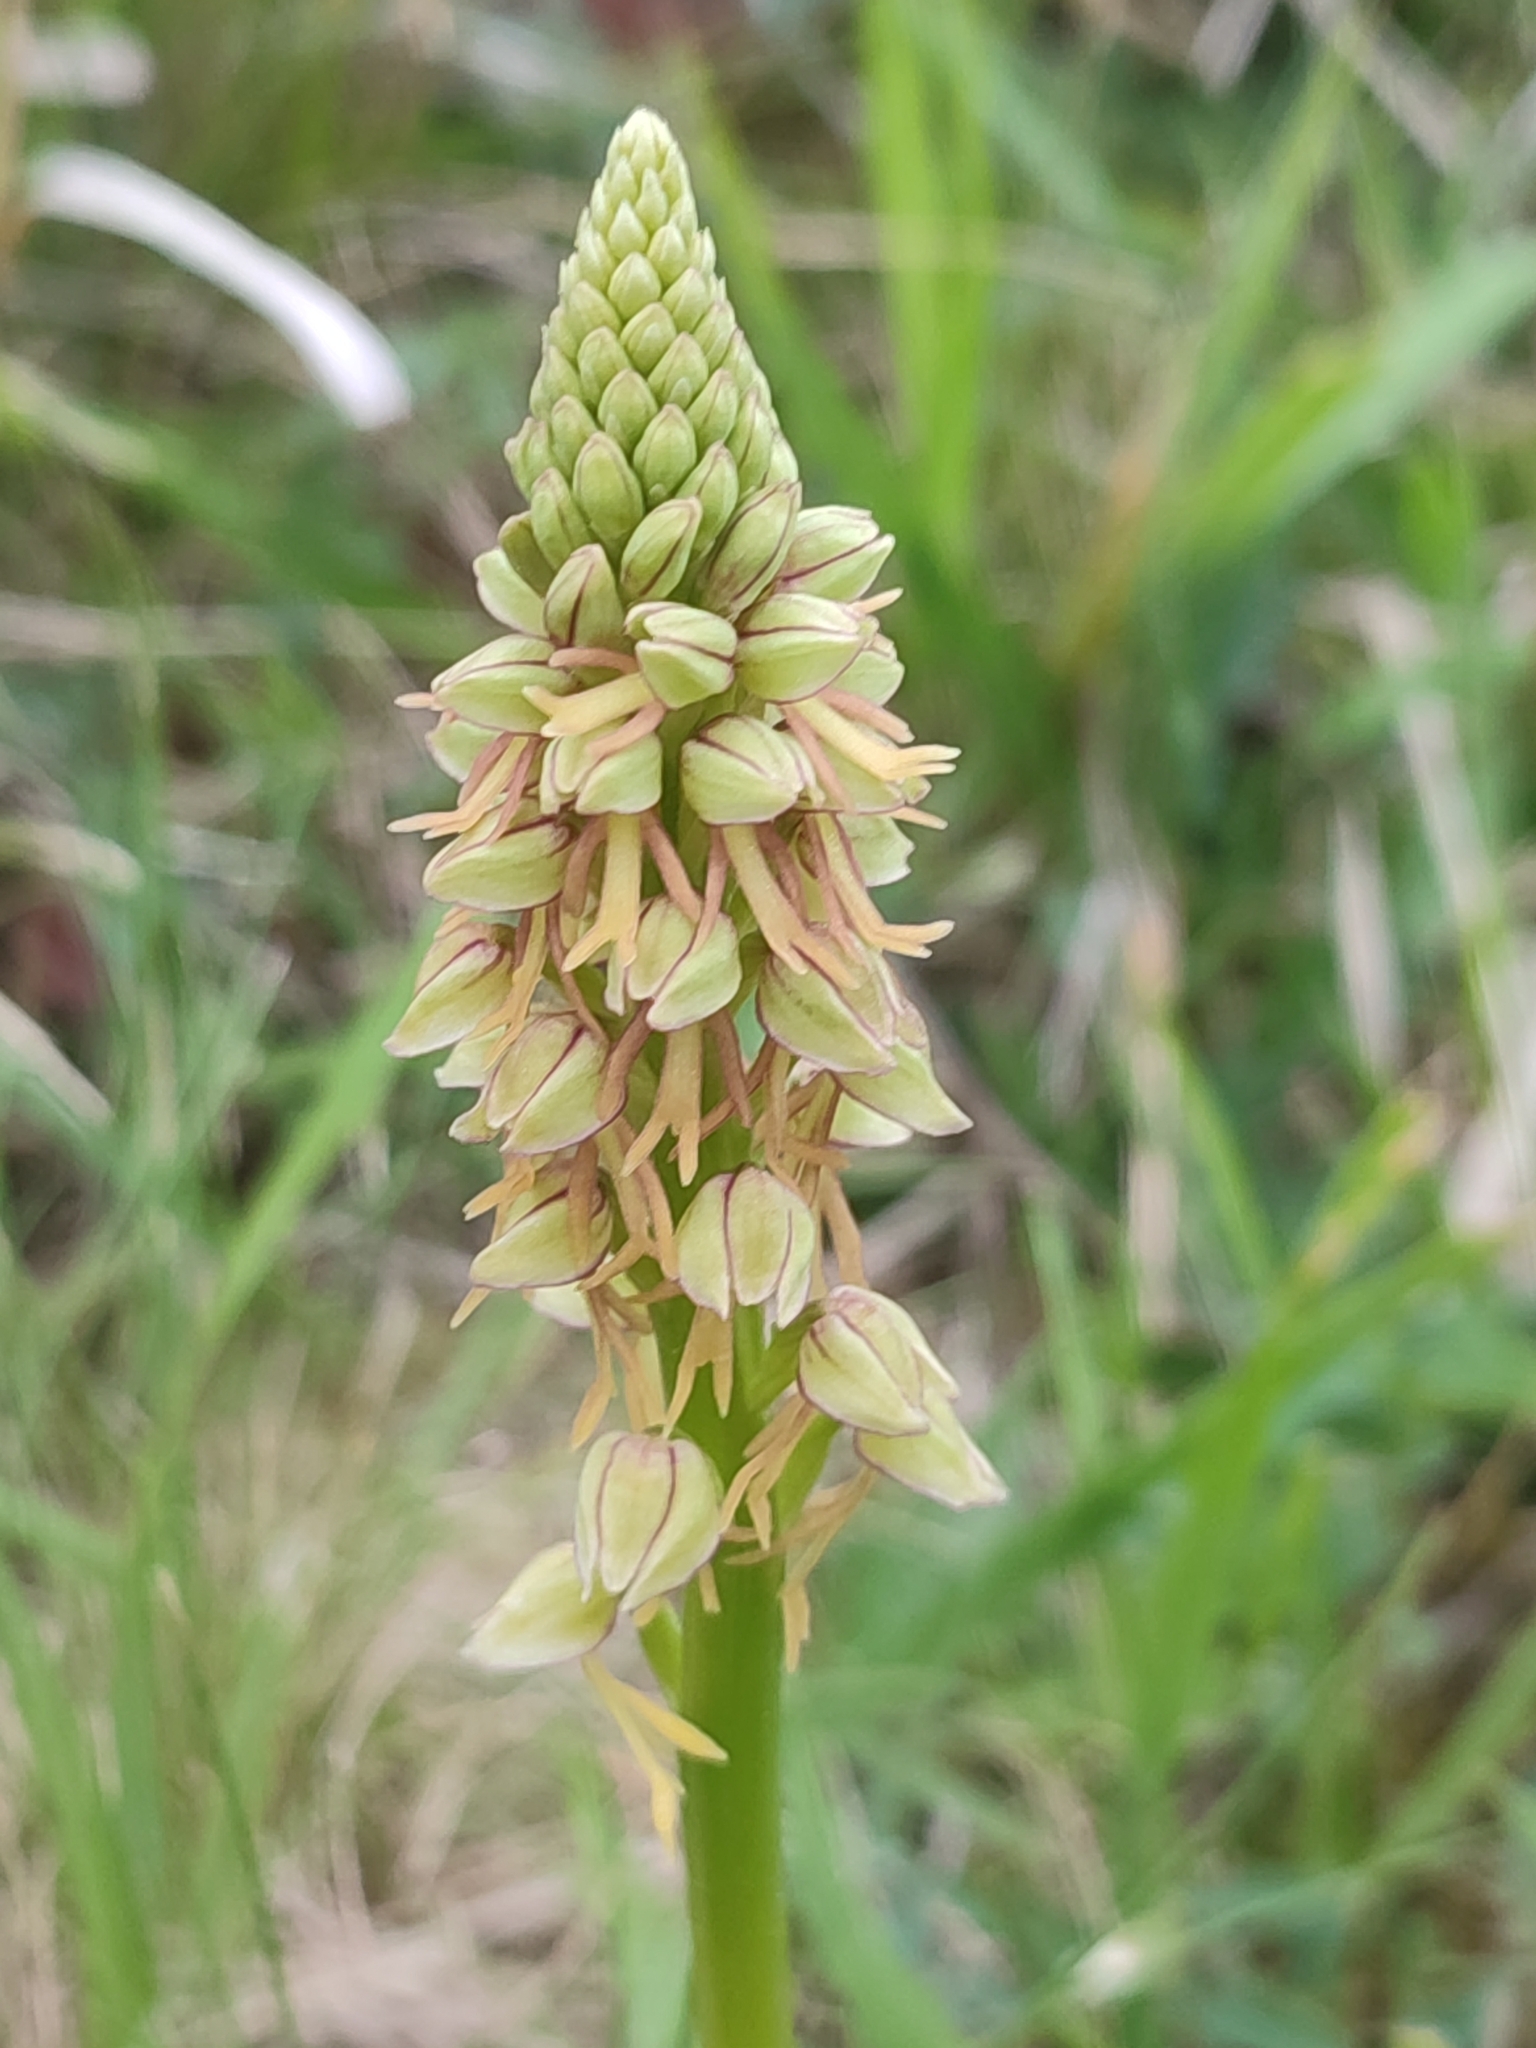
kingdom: Plantae
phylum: Tracheophyta
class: Liliopsida
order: Asparagales
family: Orchidaceae
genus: Orchis
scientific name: Orchis anthropophora
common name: Man orchid
